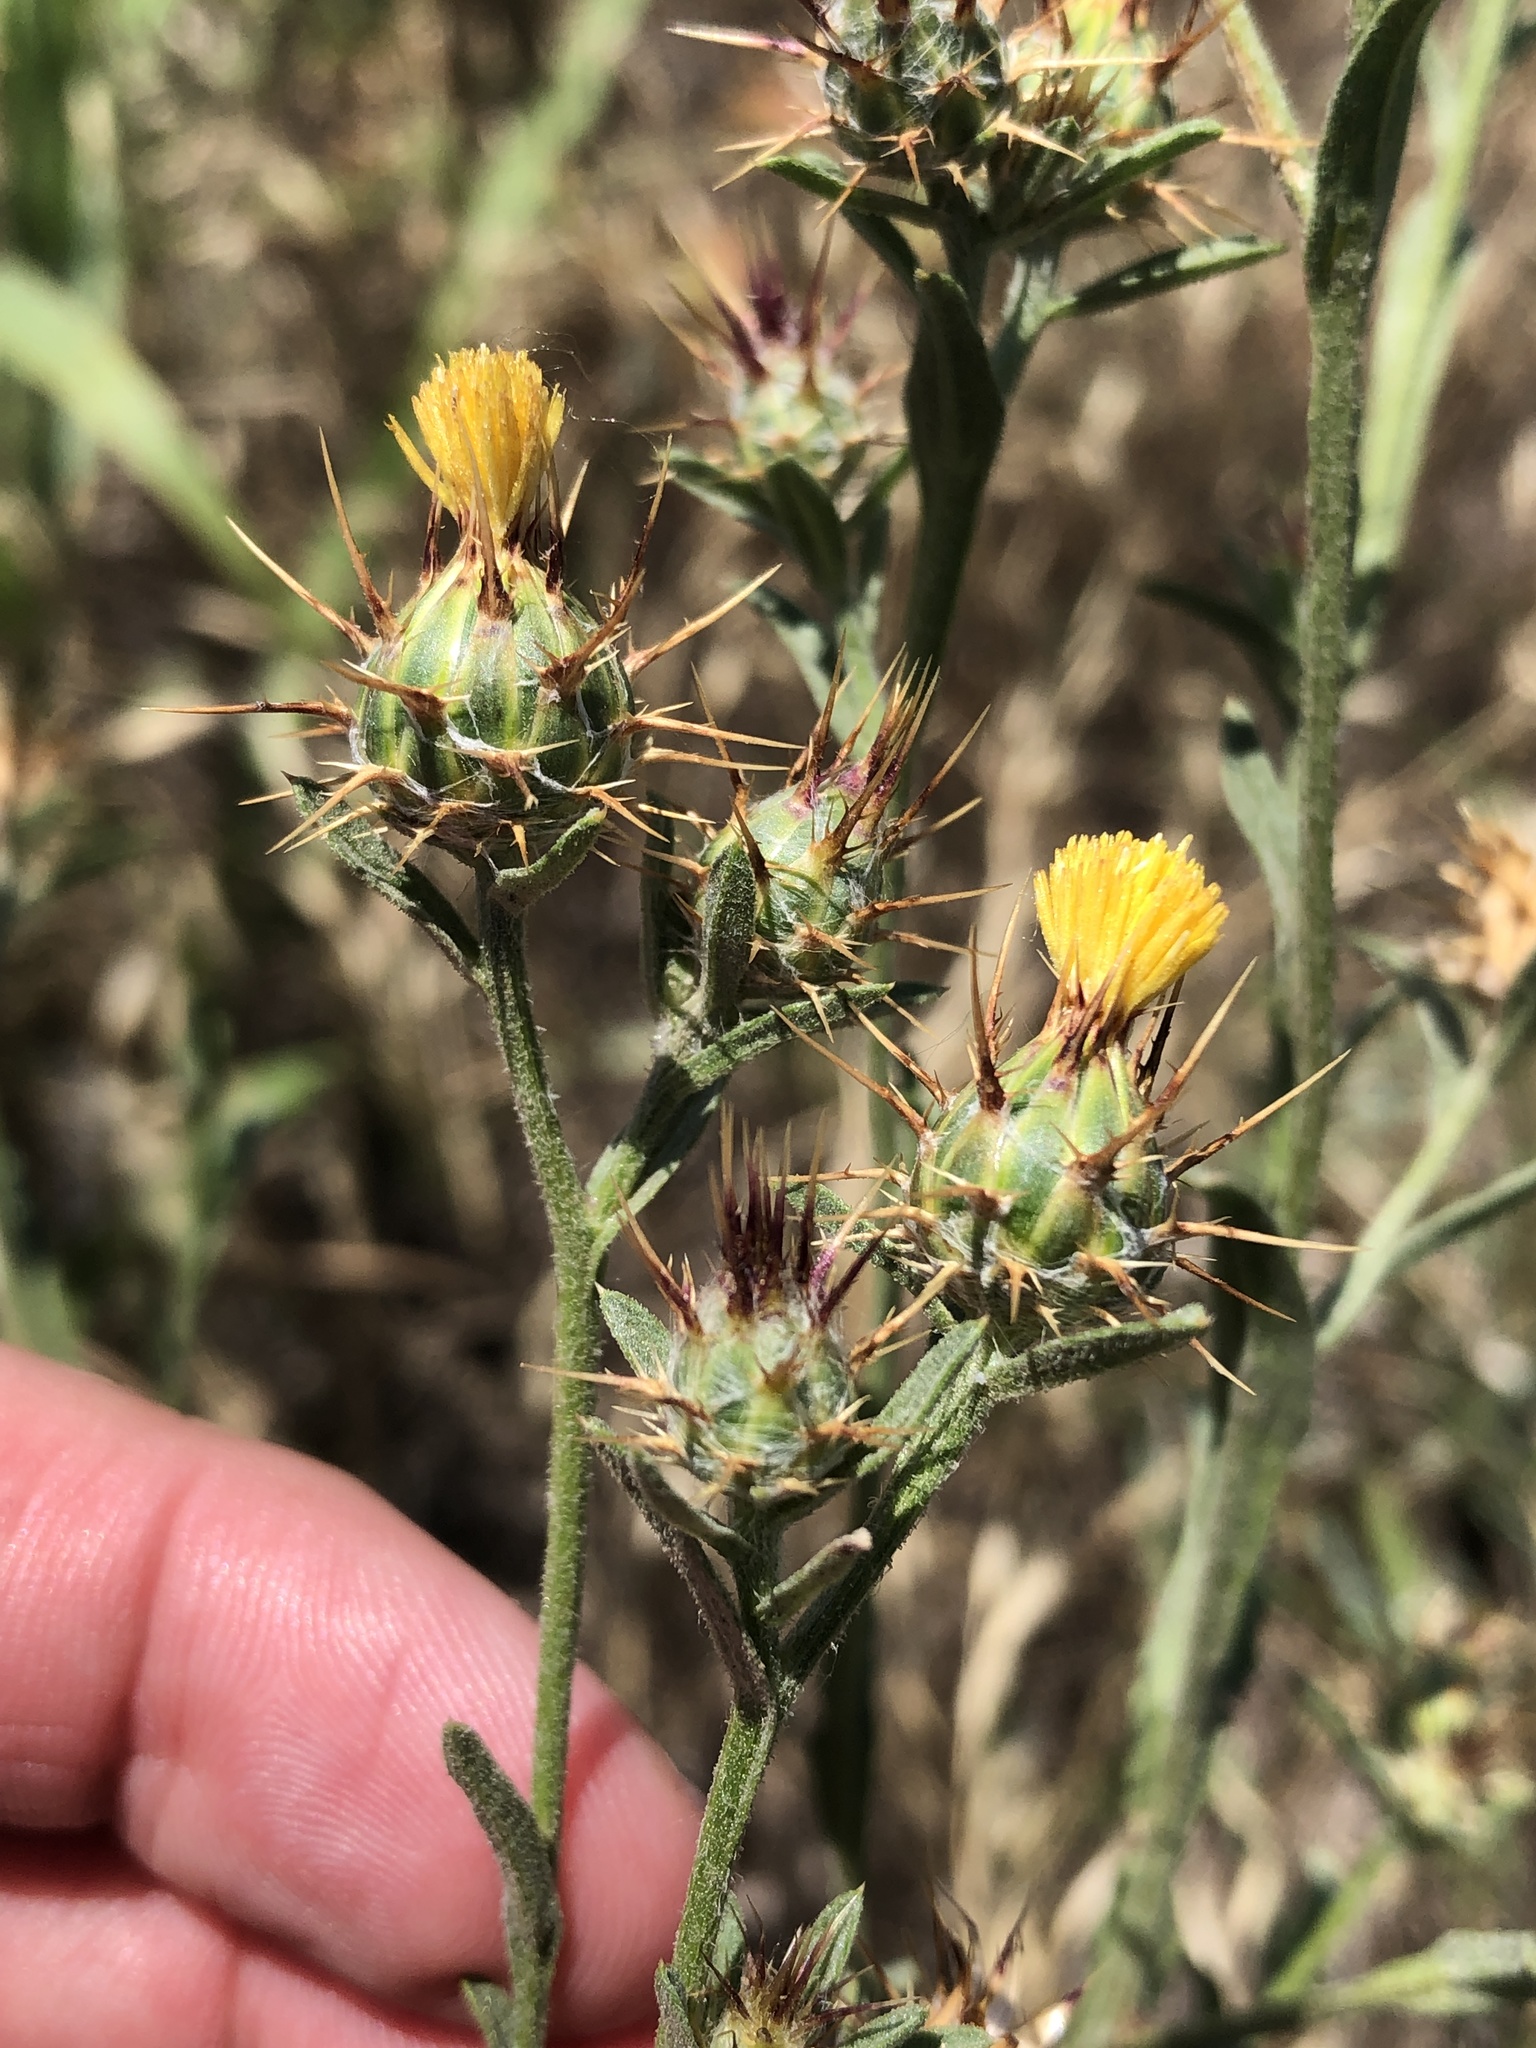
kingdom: Plantae
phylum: Tracheophyta
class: Magnoliopsida
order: Asterales
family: Asteraceae
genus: Centaurea
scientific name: Centaurea melitensis
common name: Maltese star-thistle
